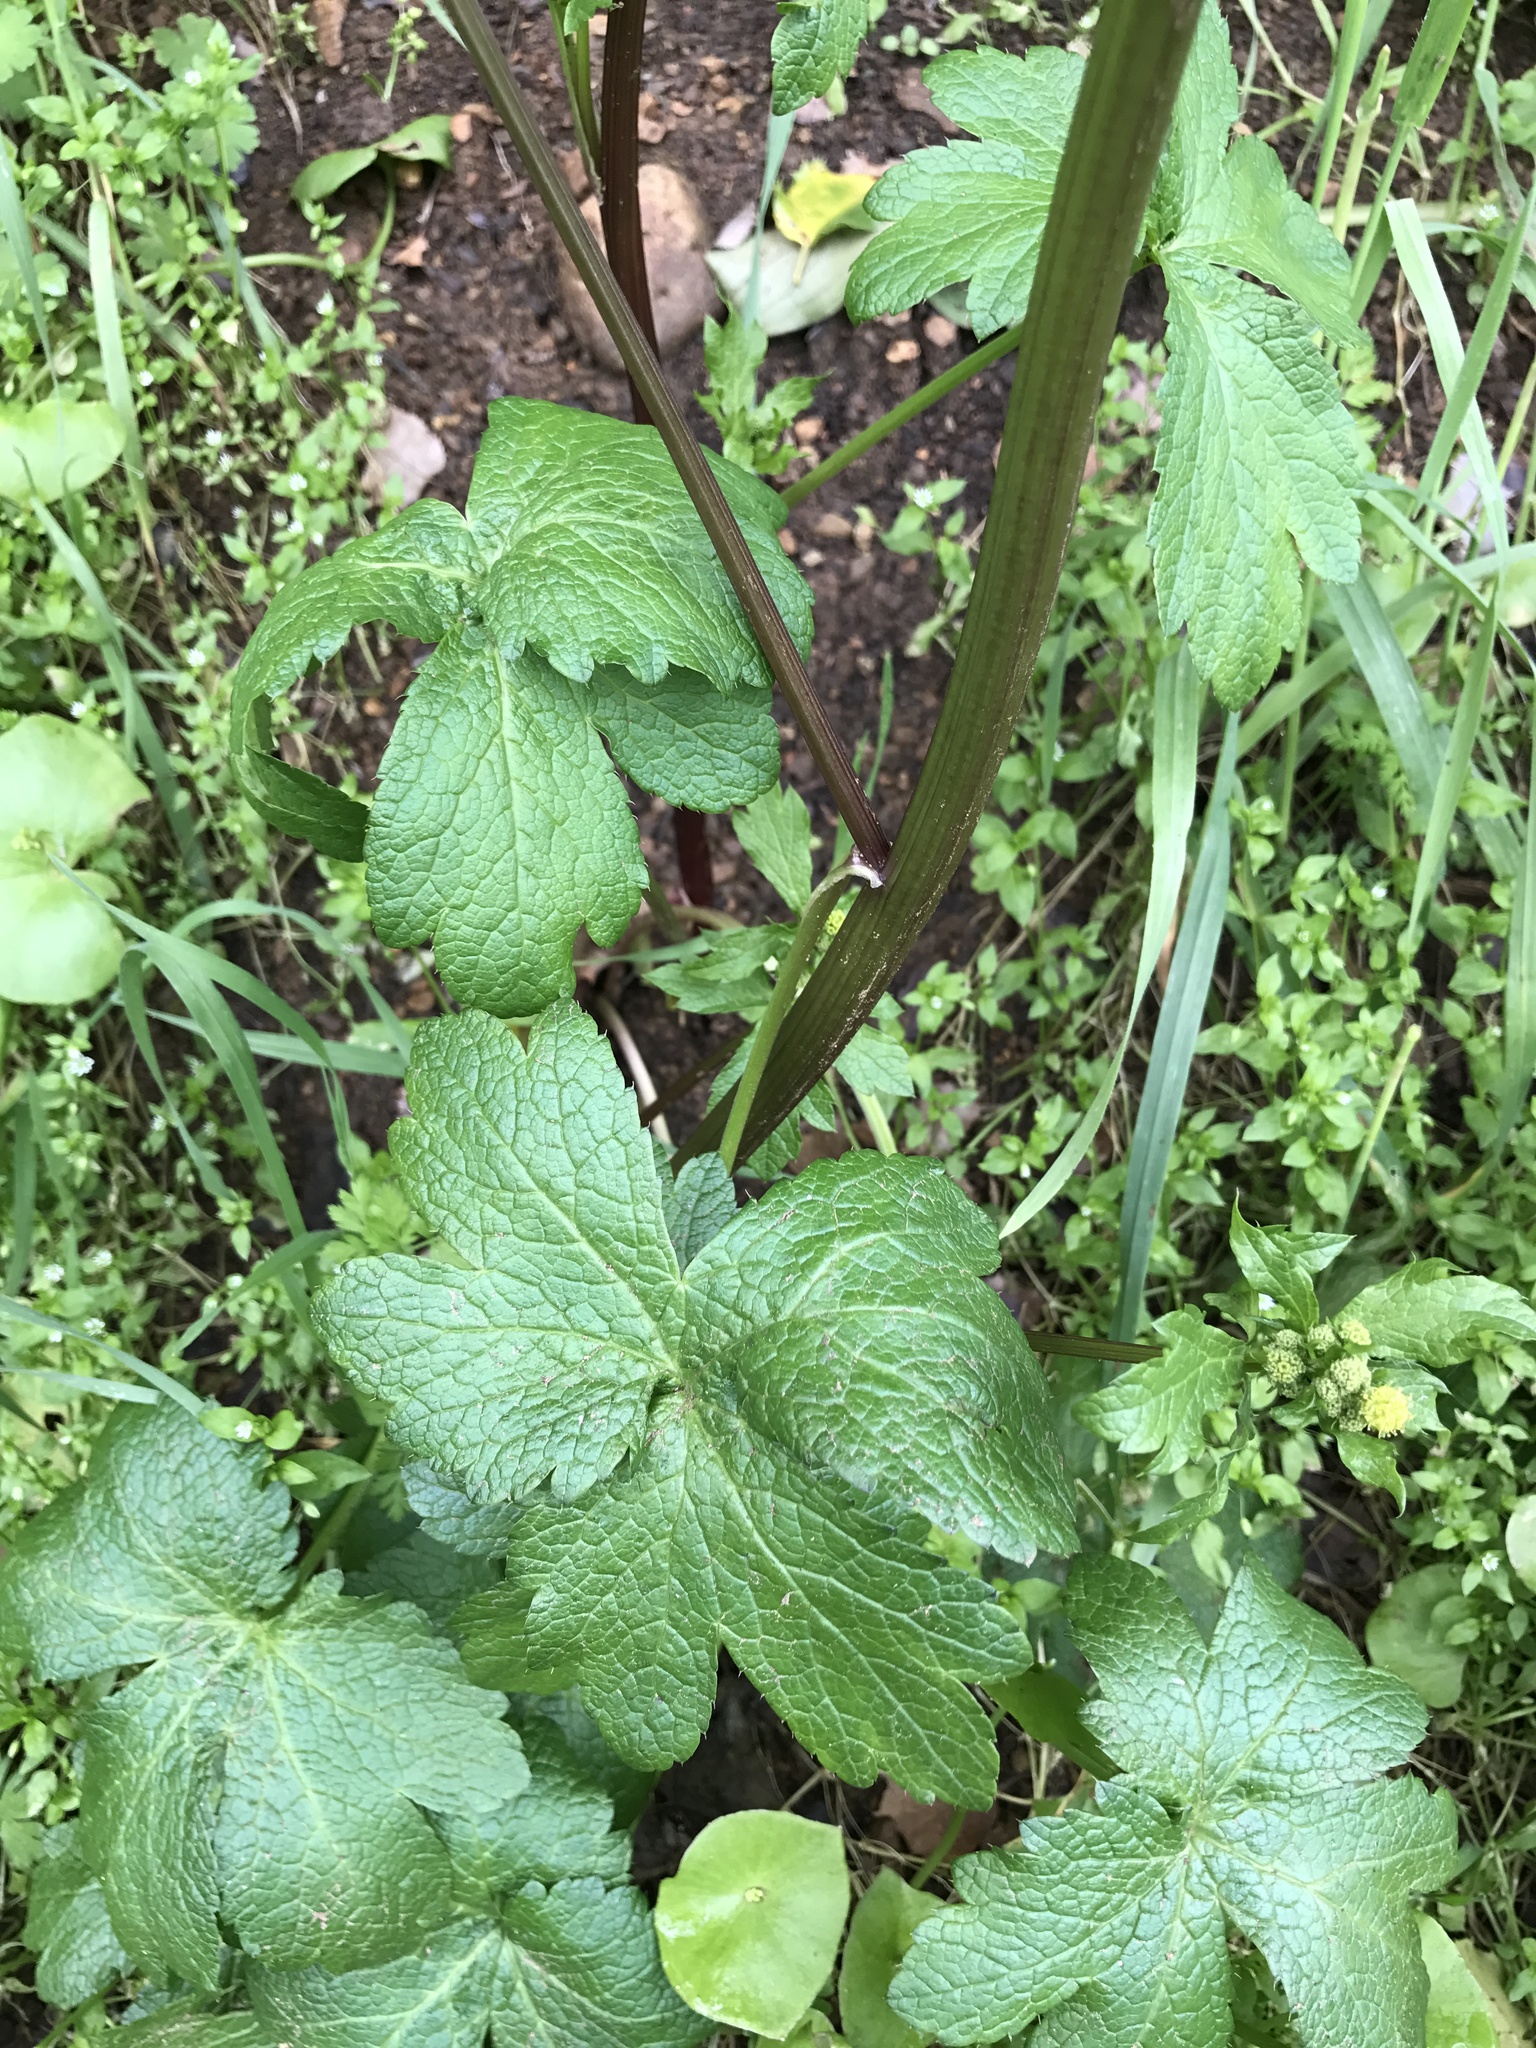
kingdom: Plantae
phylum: Tracheophyta
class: Magnoliopsida
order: Apiales
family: Apiaceae
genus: Sanicula
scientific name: Sanicula crassicaulis
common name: Western snakeroot
